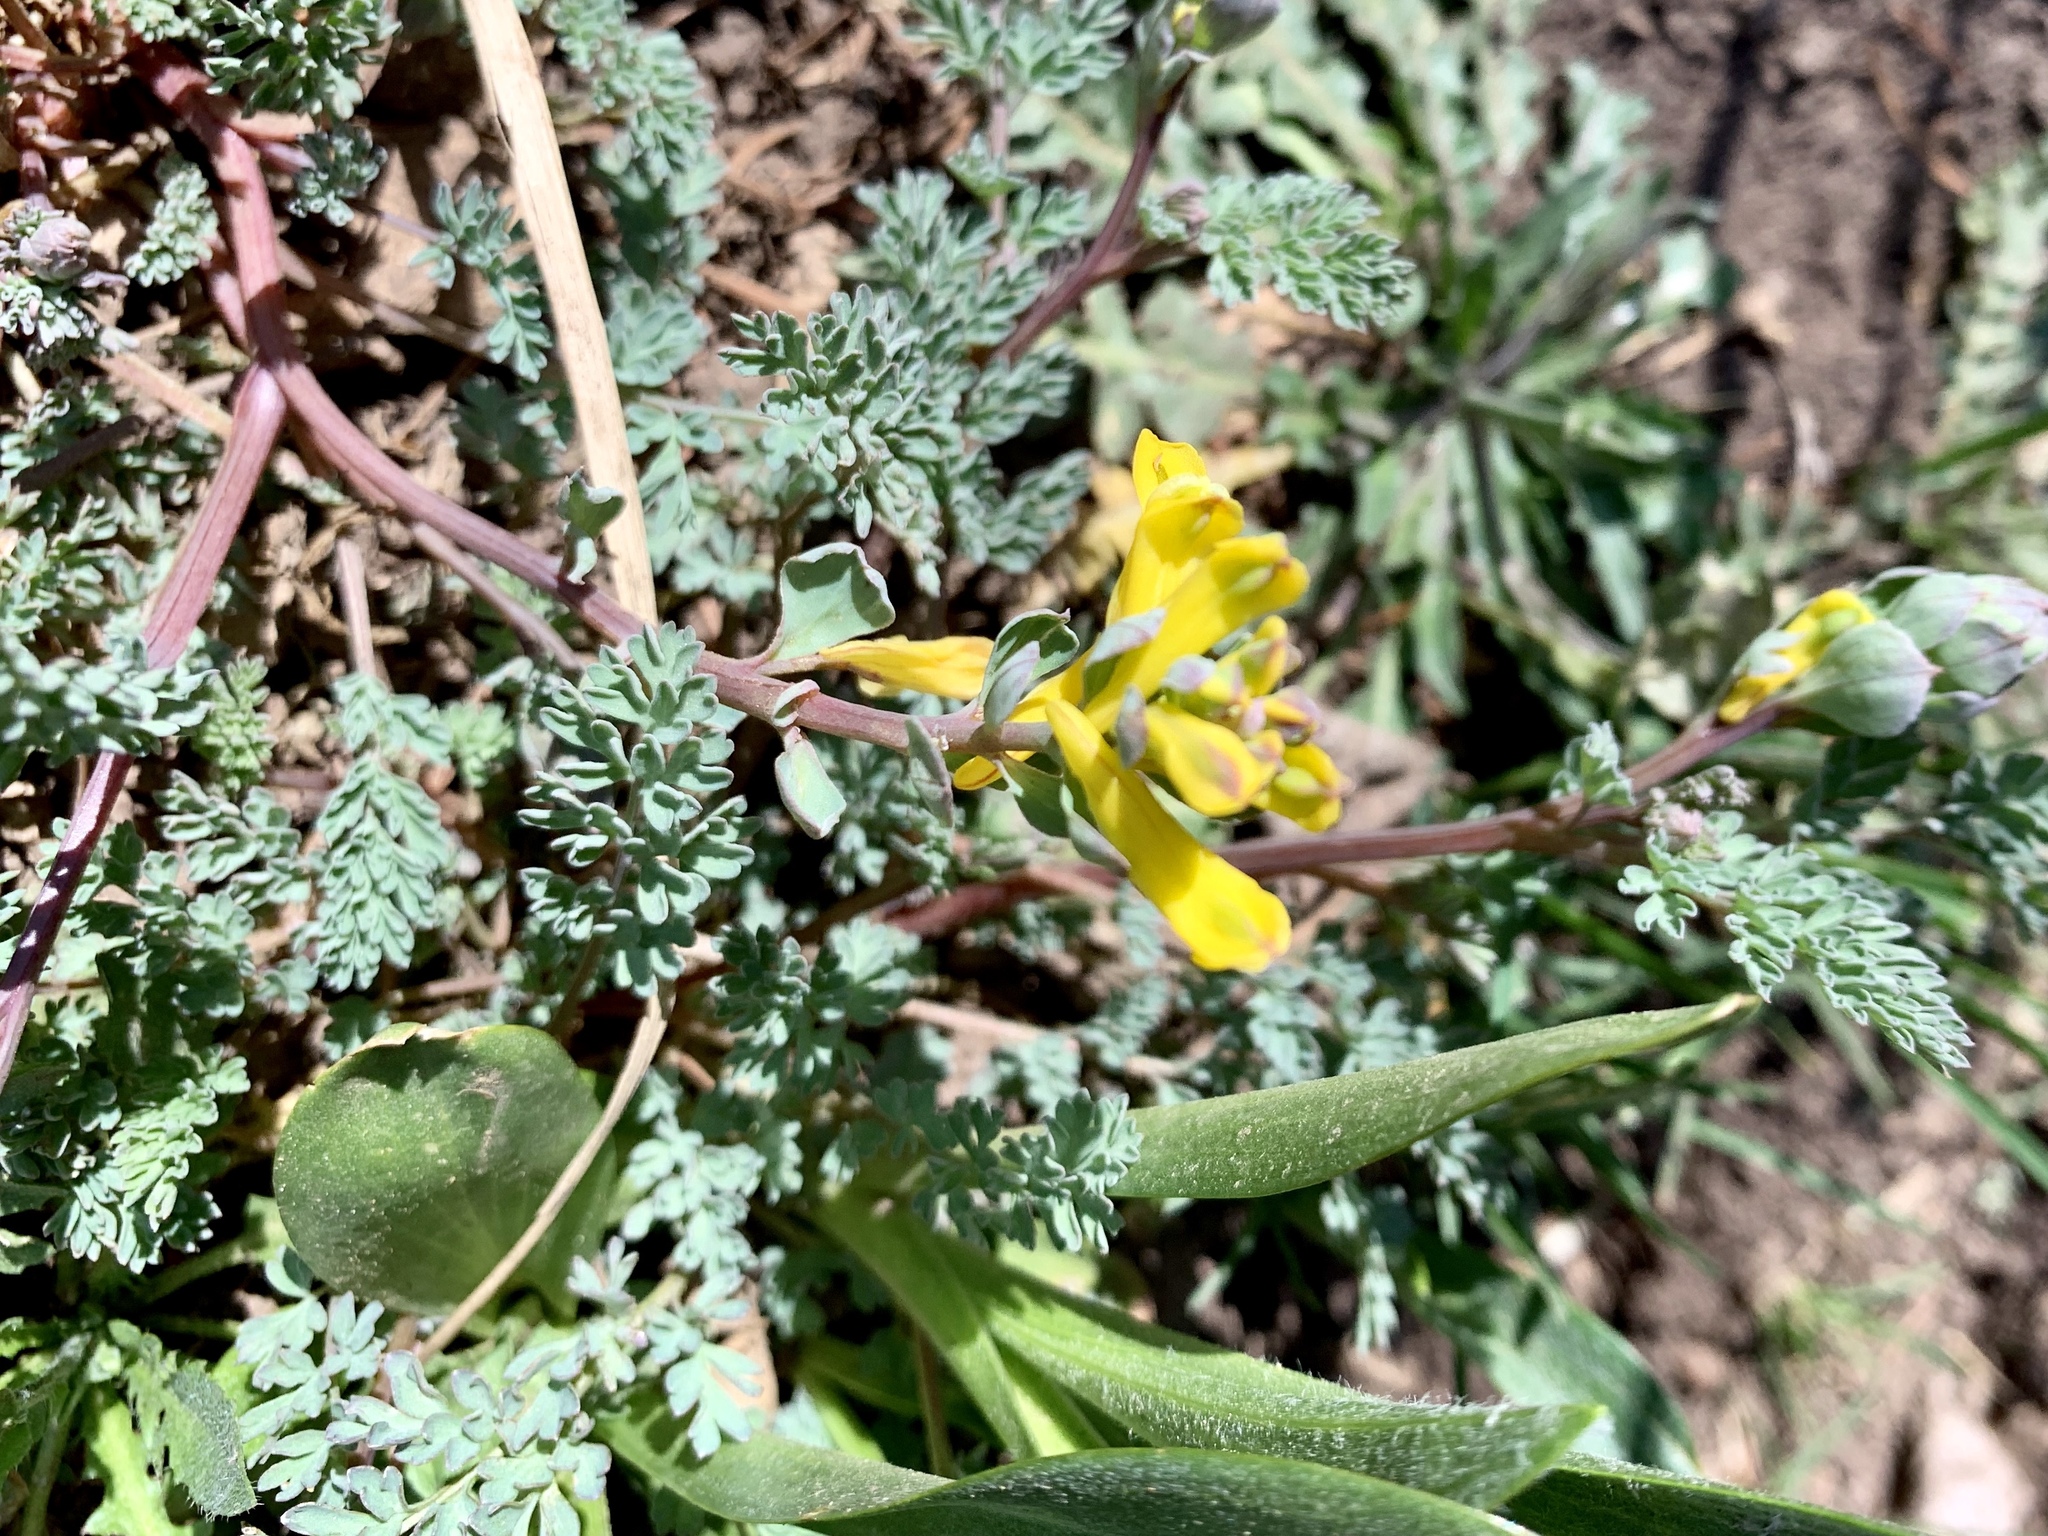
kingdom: Plantae
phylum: Tracheophyta
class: Magnoliopsida
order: Ranunculales
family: Papaveraceae
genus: Corydalis
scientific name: Corydalis aurea
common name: Golden corydalis
